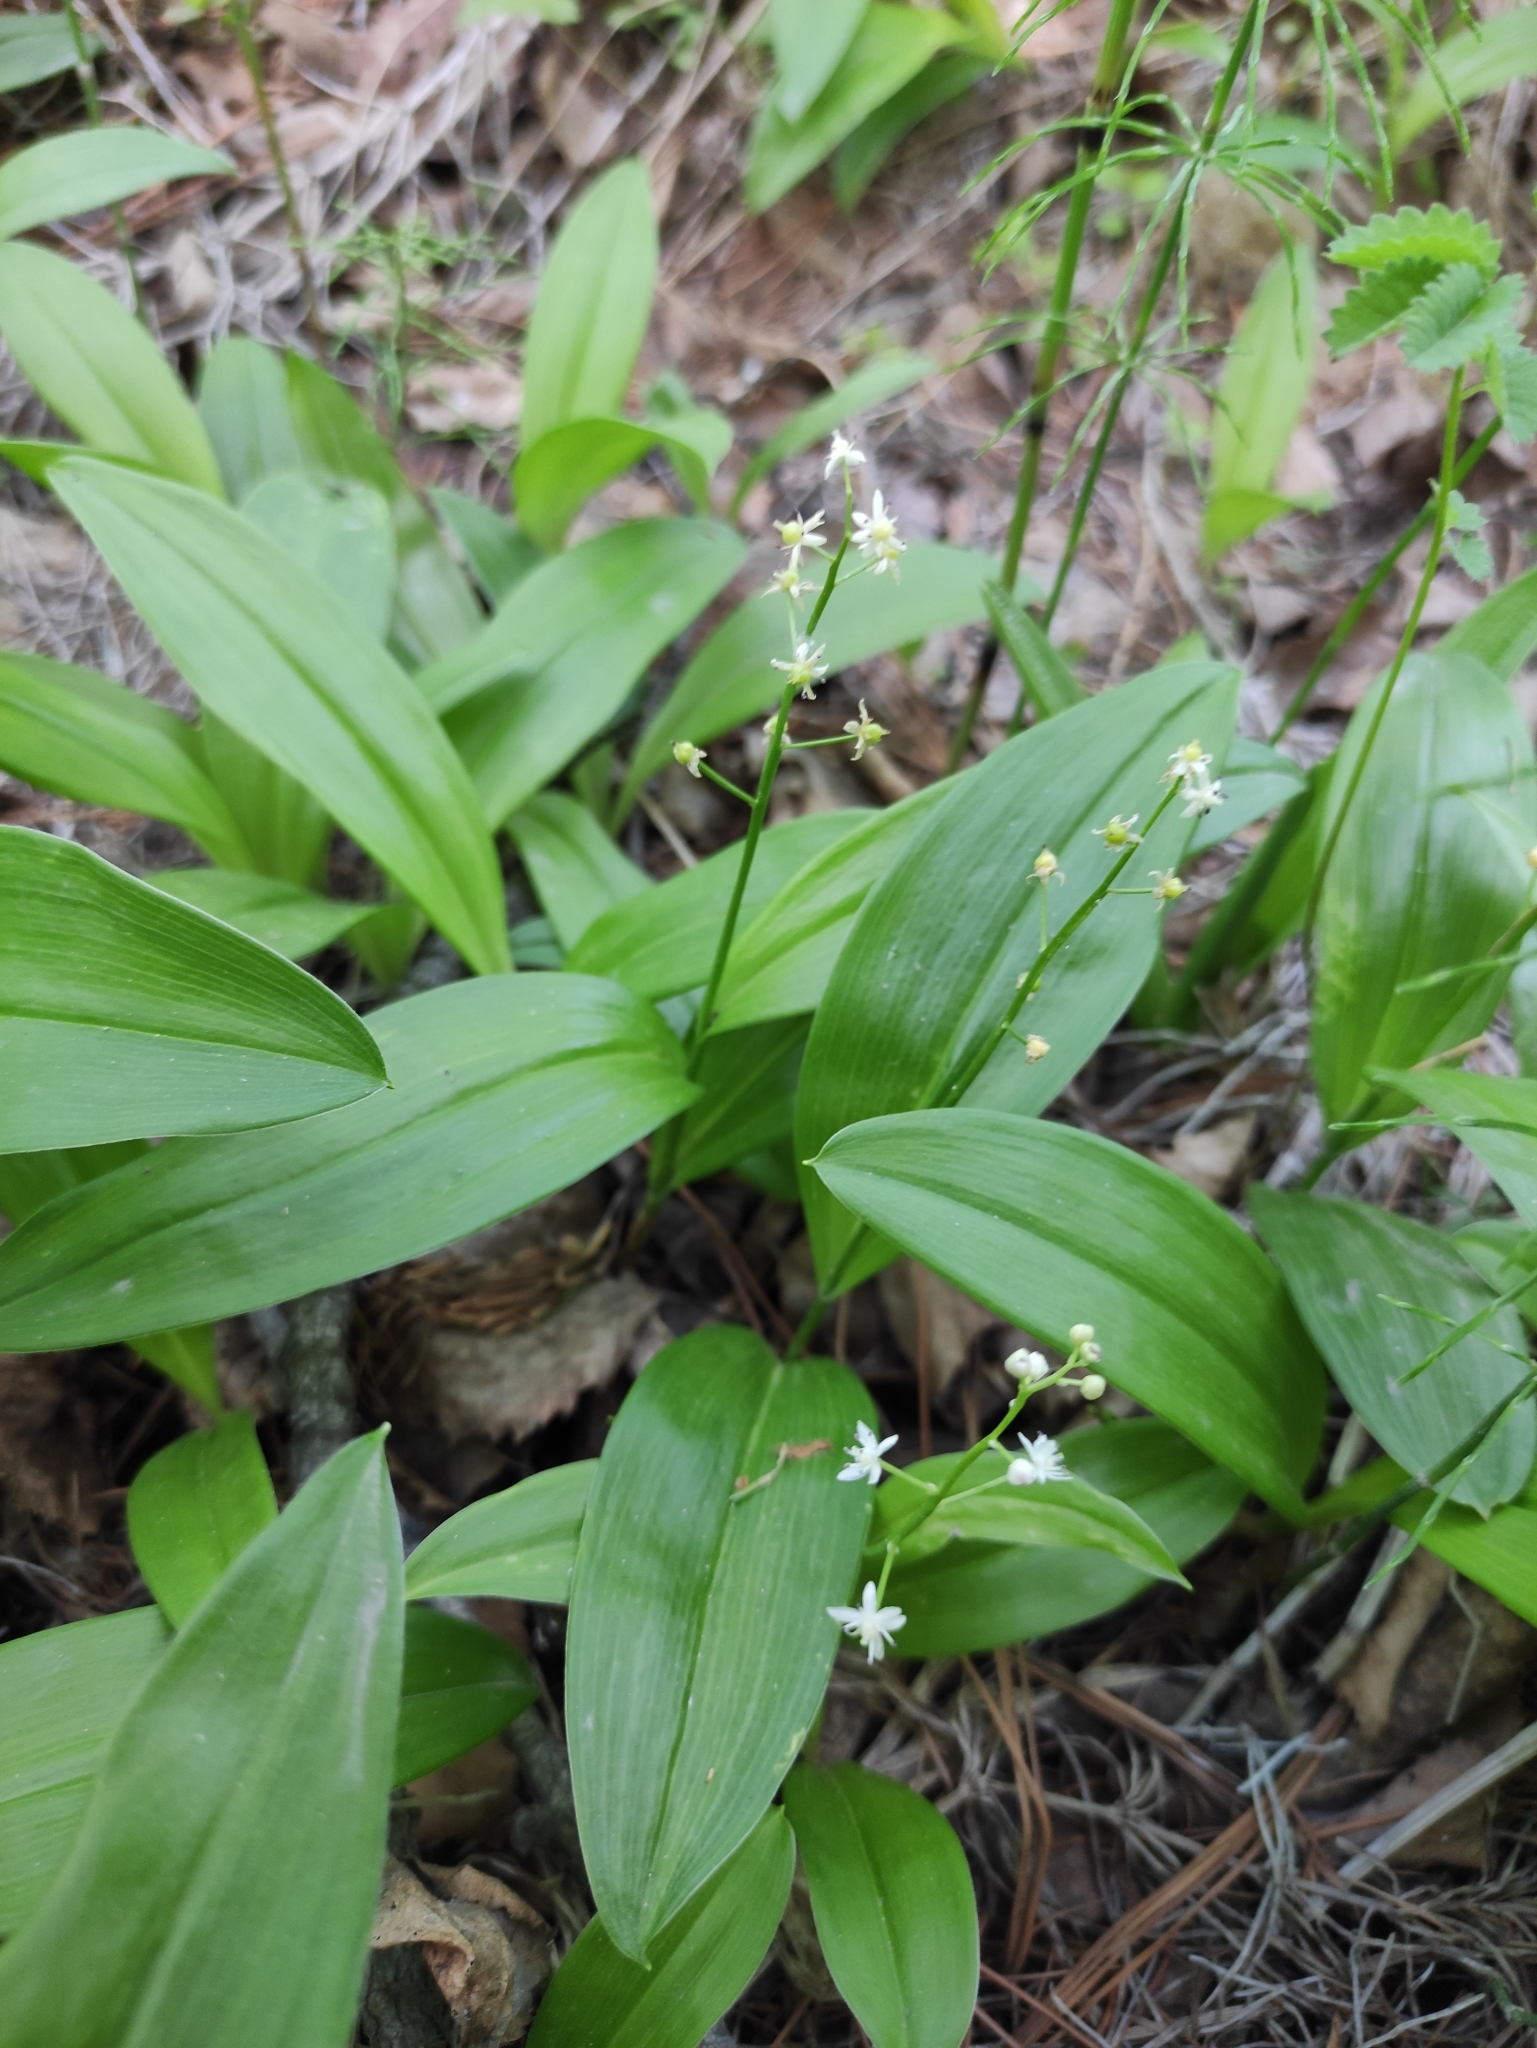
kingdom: Plantae
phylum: Tracheophyta
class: Liliopsida
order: Asparagales
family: Asparagaceae
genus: Maianthemum
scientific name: Maianthemum trifolium
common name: Swamp false solomon's seal
